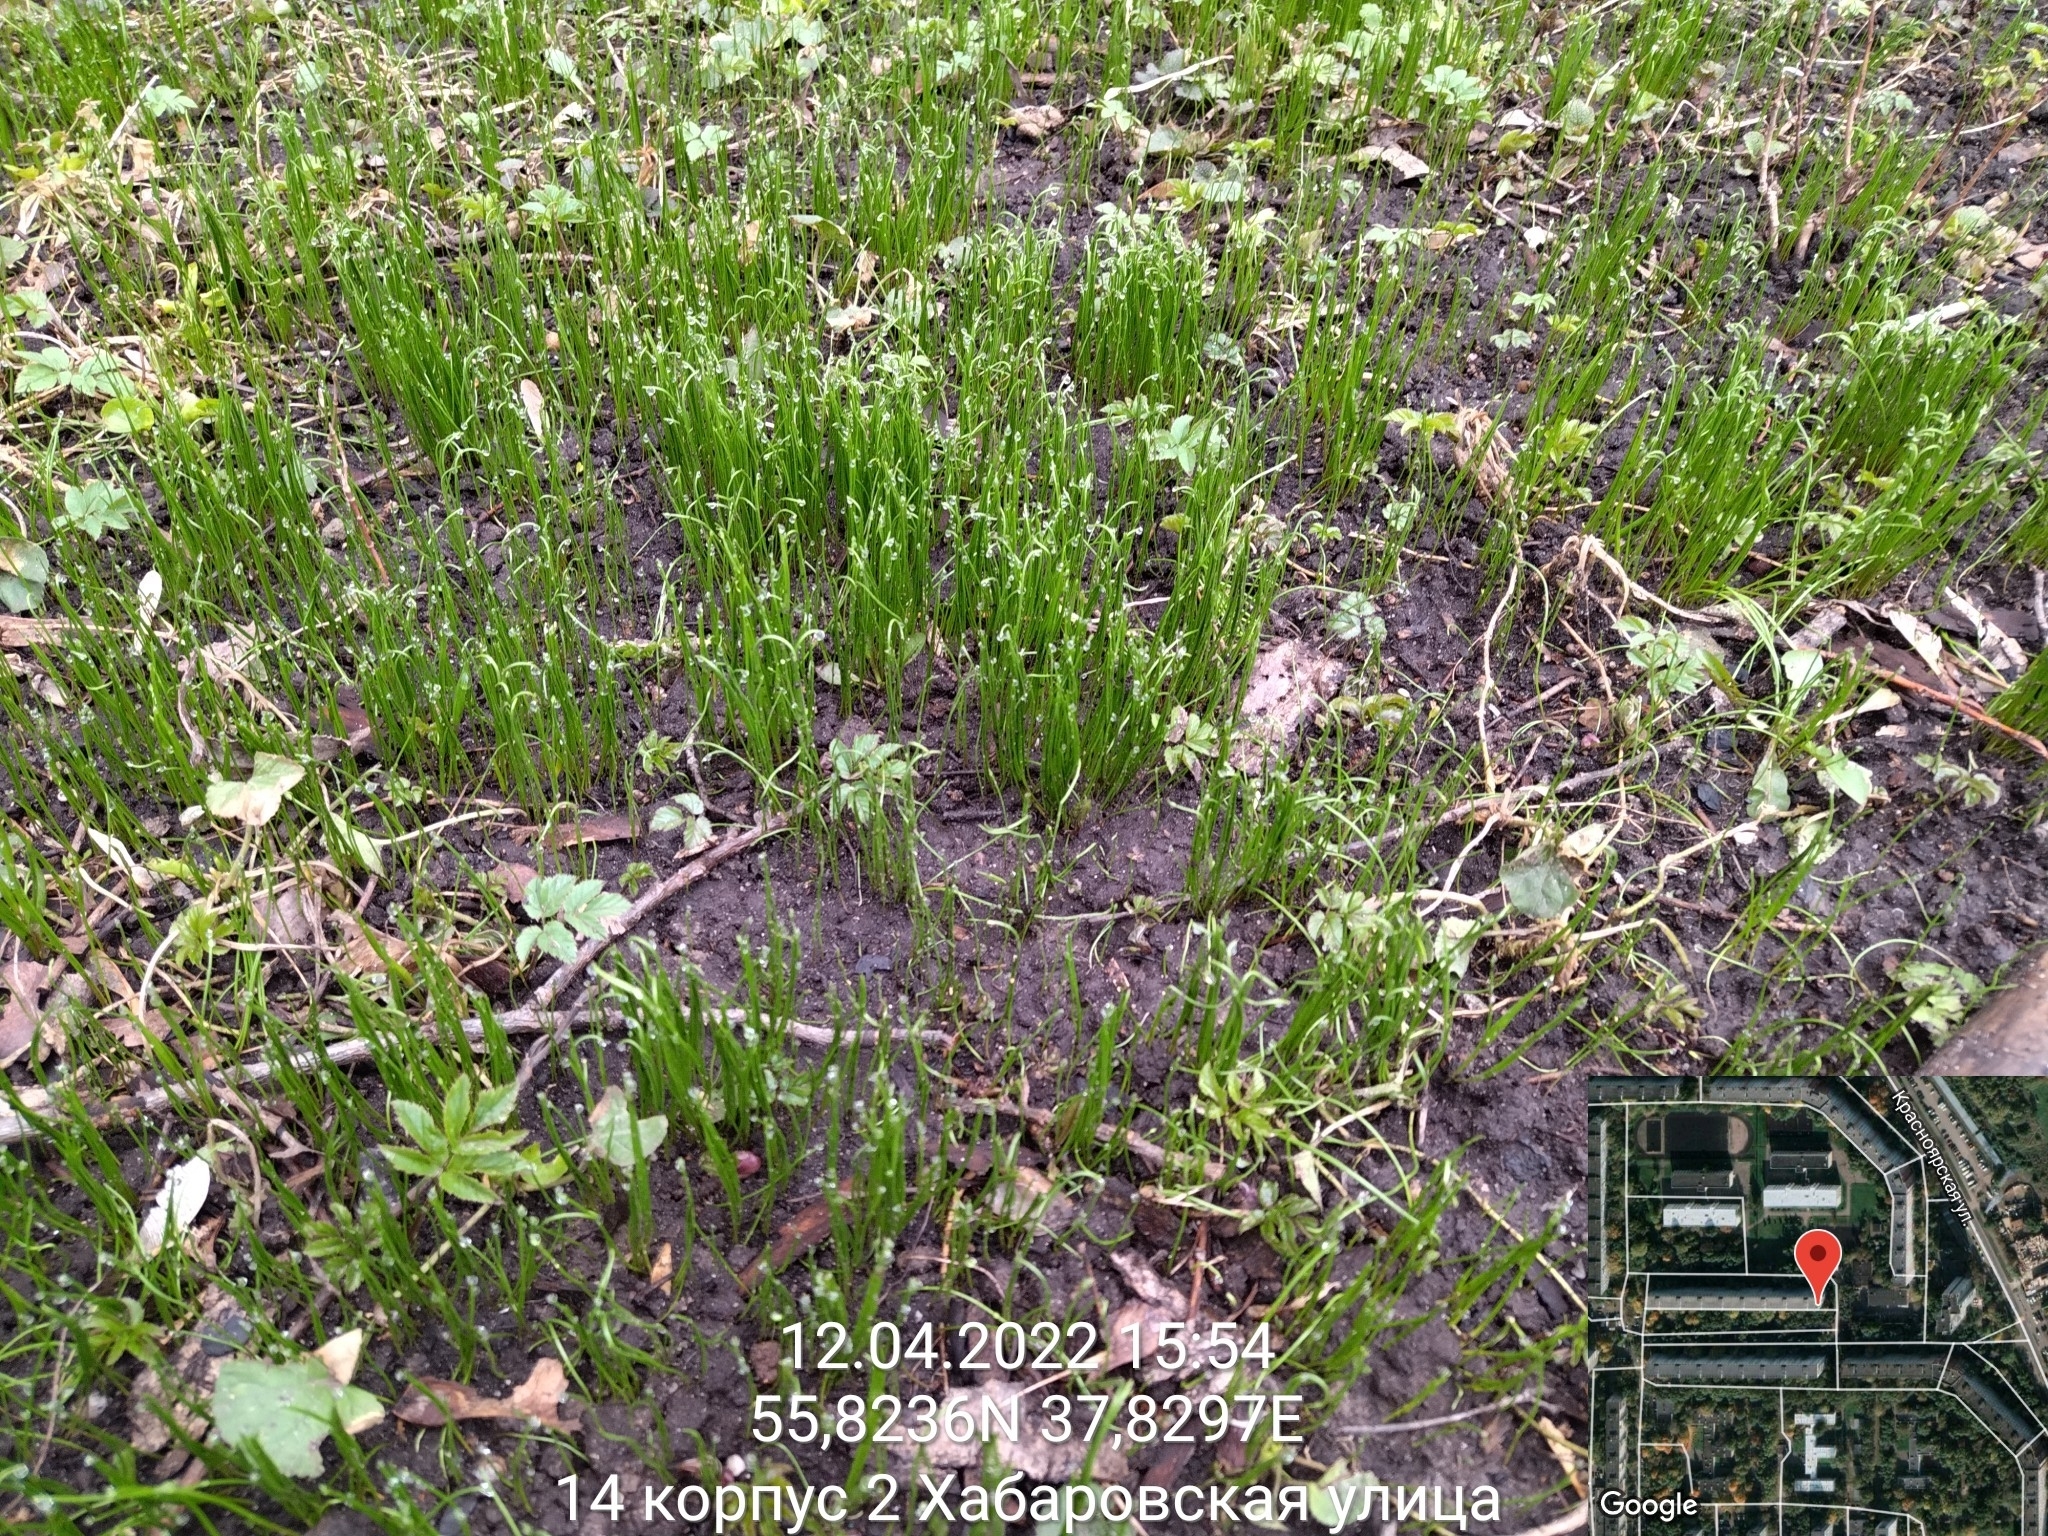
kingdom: Plantae
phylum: Tracheophyta
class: Liliopsida
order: Liliales
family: Liliaceae
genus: Gagea
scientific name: Gagea minima
